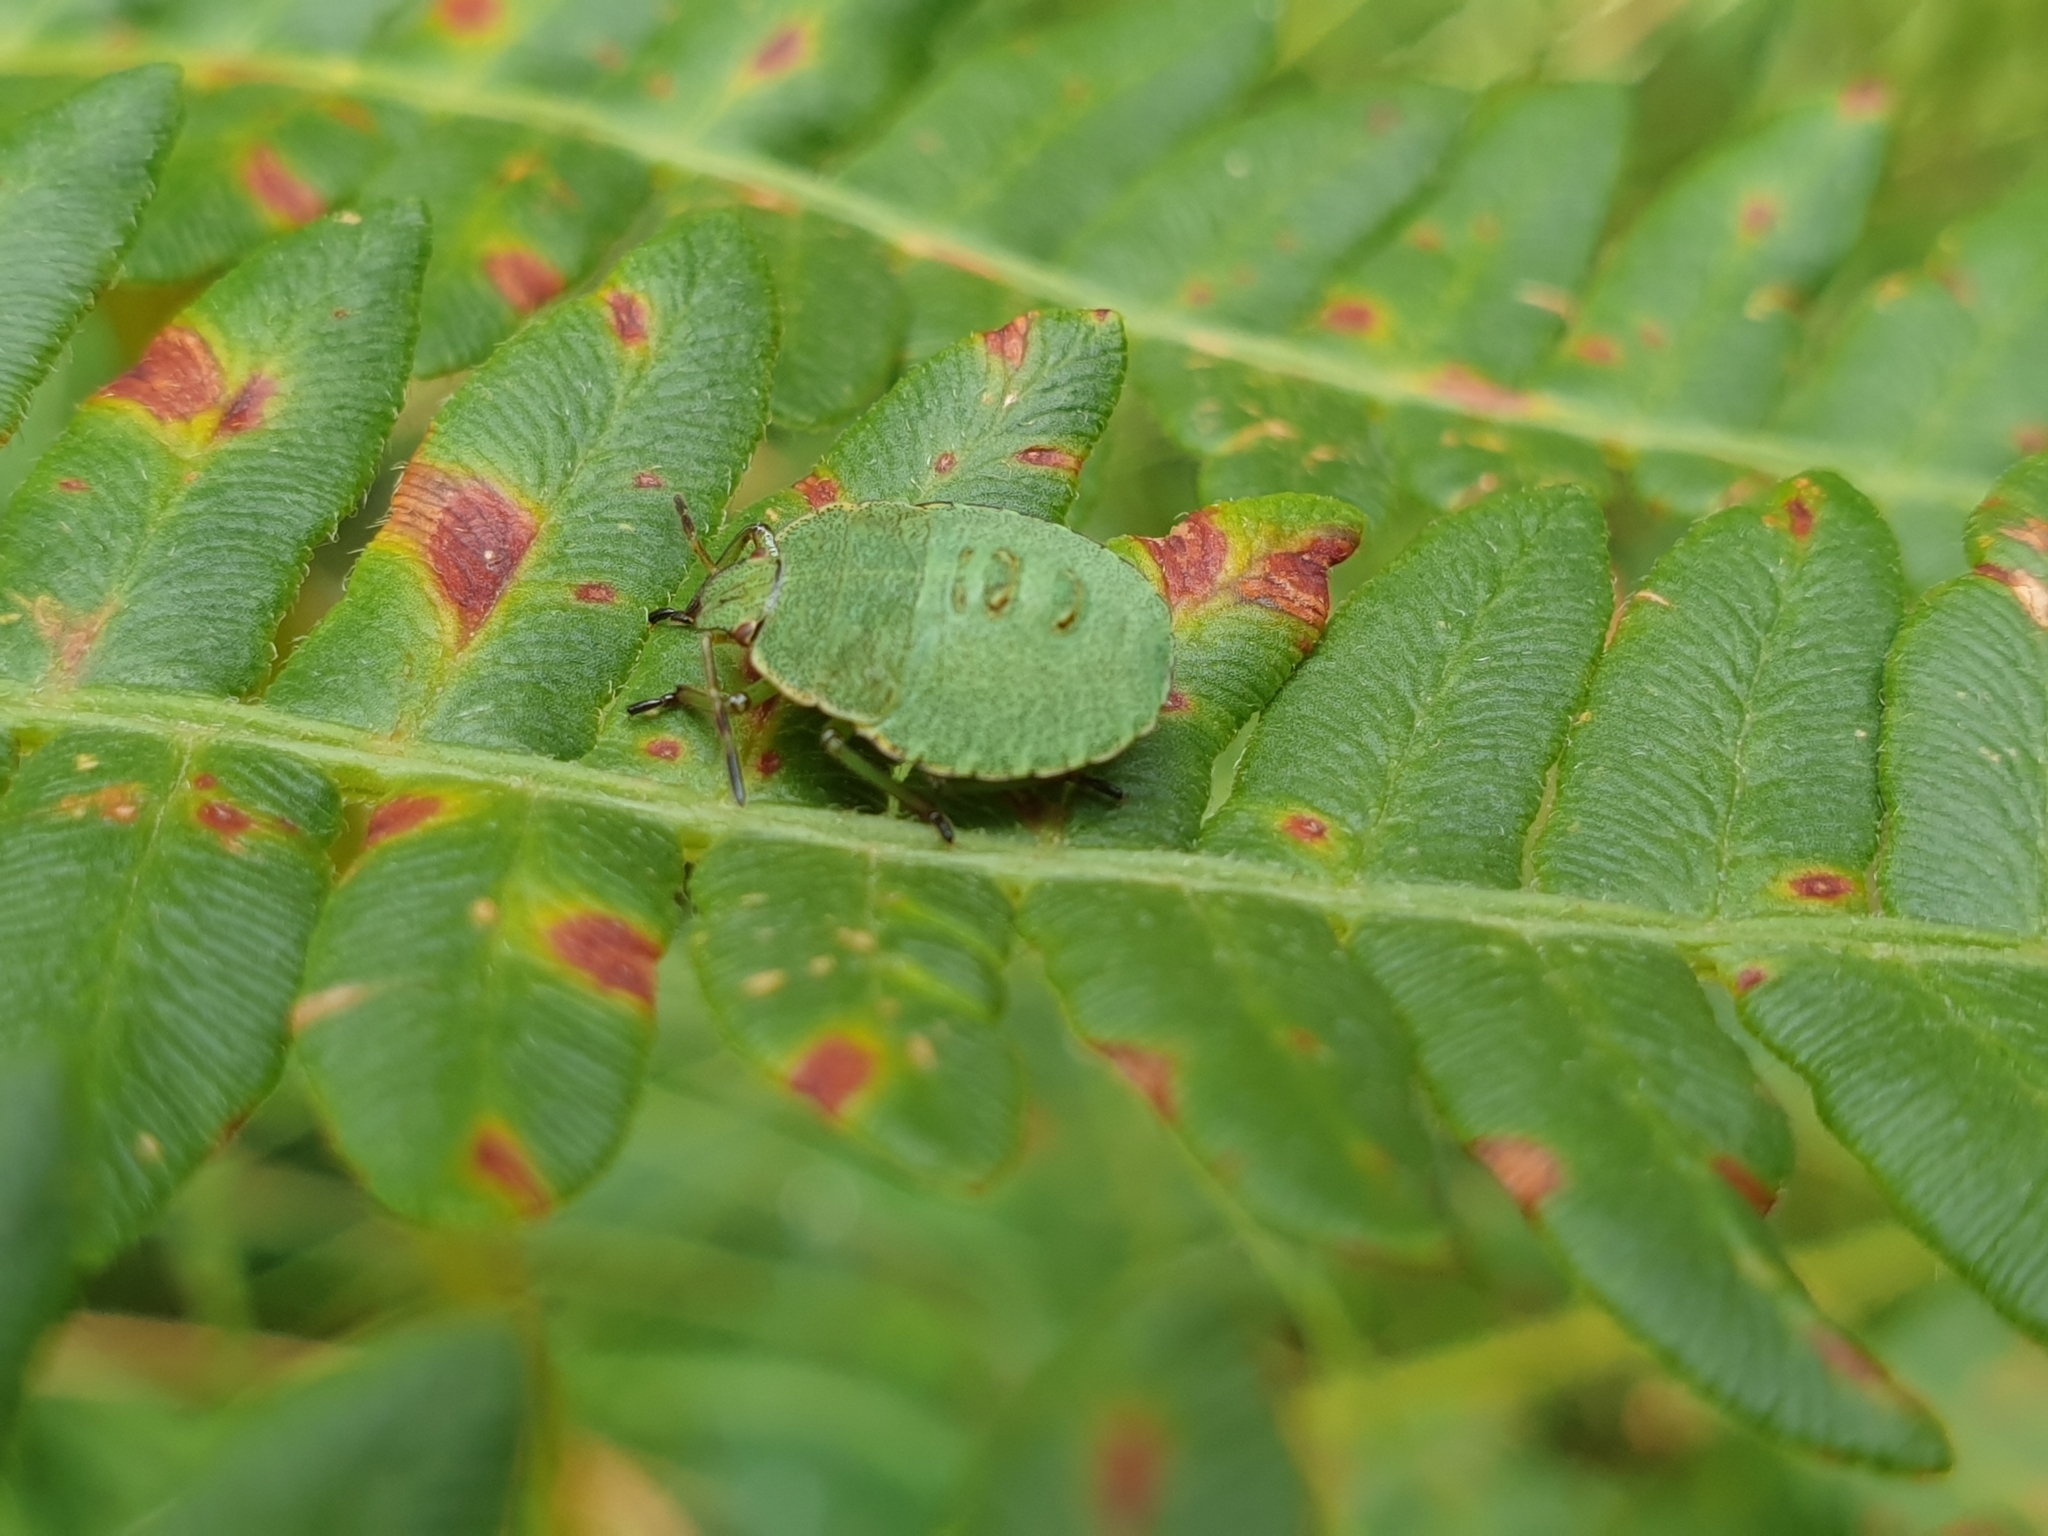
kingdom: Animalia
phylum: Arthropoda
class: Insecta
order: Hemiptera
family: Pentatomidae
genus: Palomena
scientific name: Palomena prasina
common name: Green shieldbug
